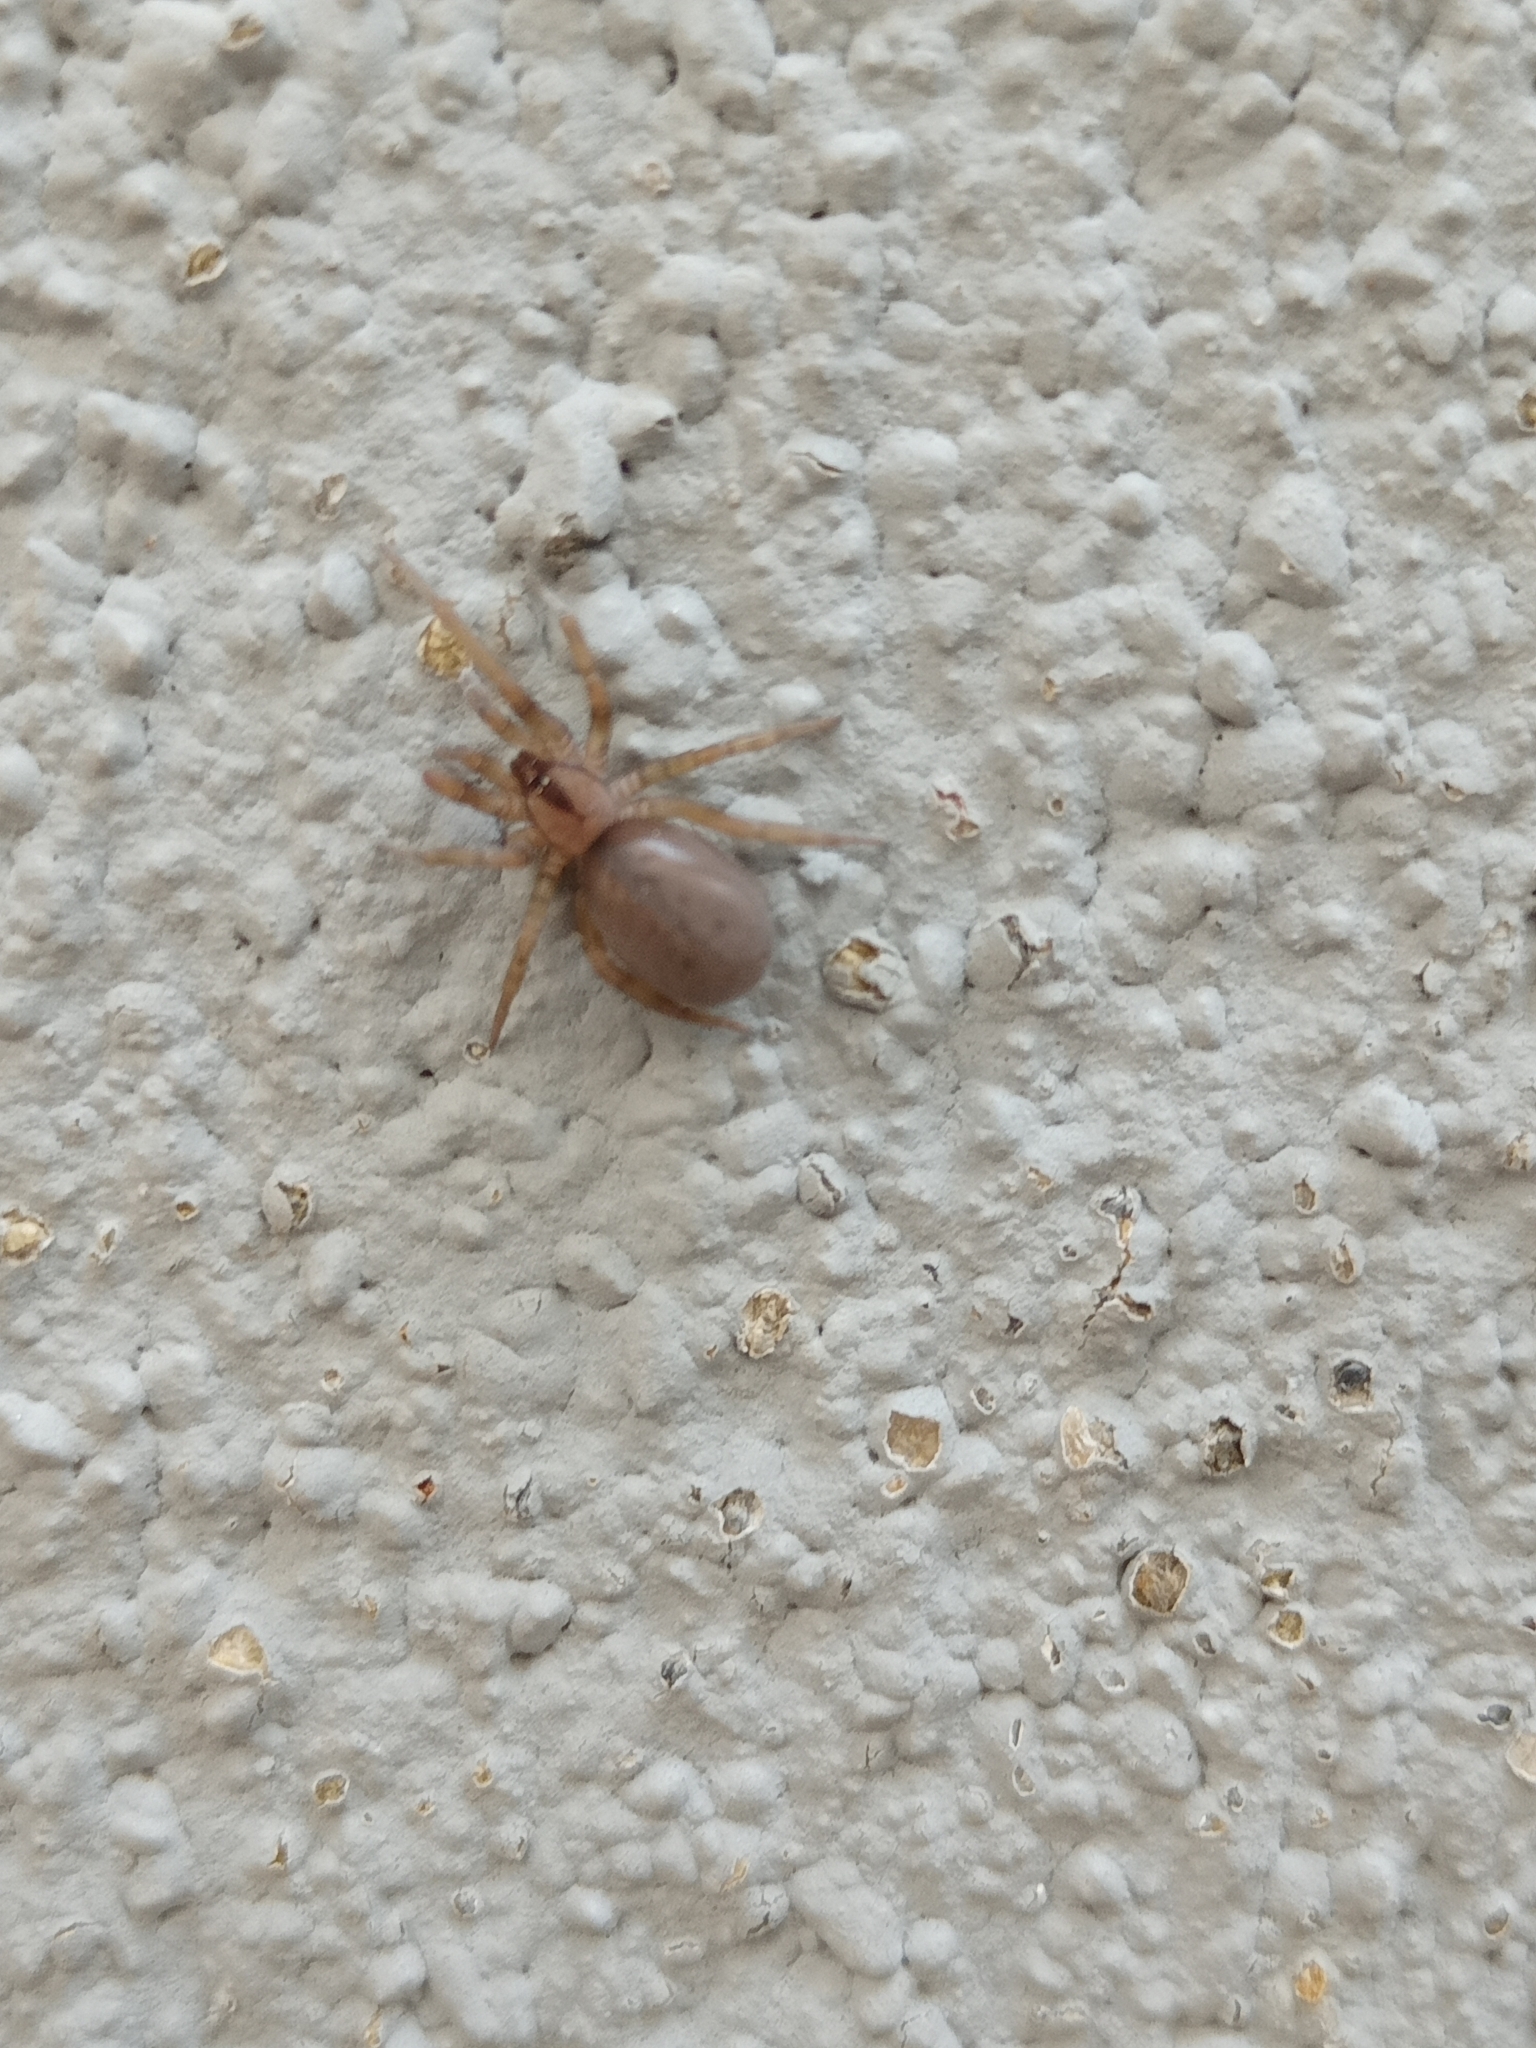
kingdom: Animalia
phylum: Arthropoda
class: Arachnida
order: Araneae
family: Filistatidae
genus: Filistata
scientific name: Filistata insidiatrix
